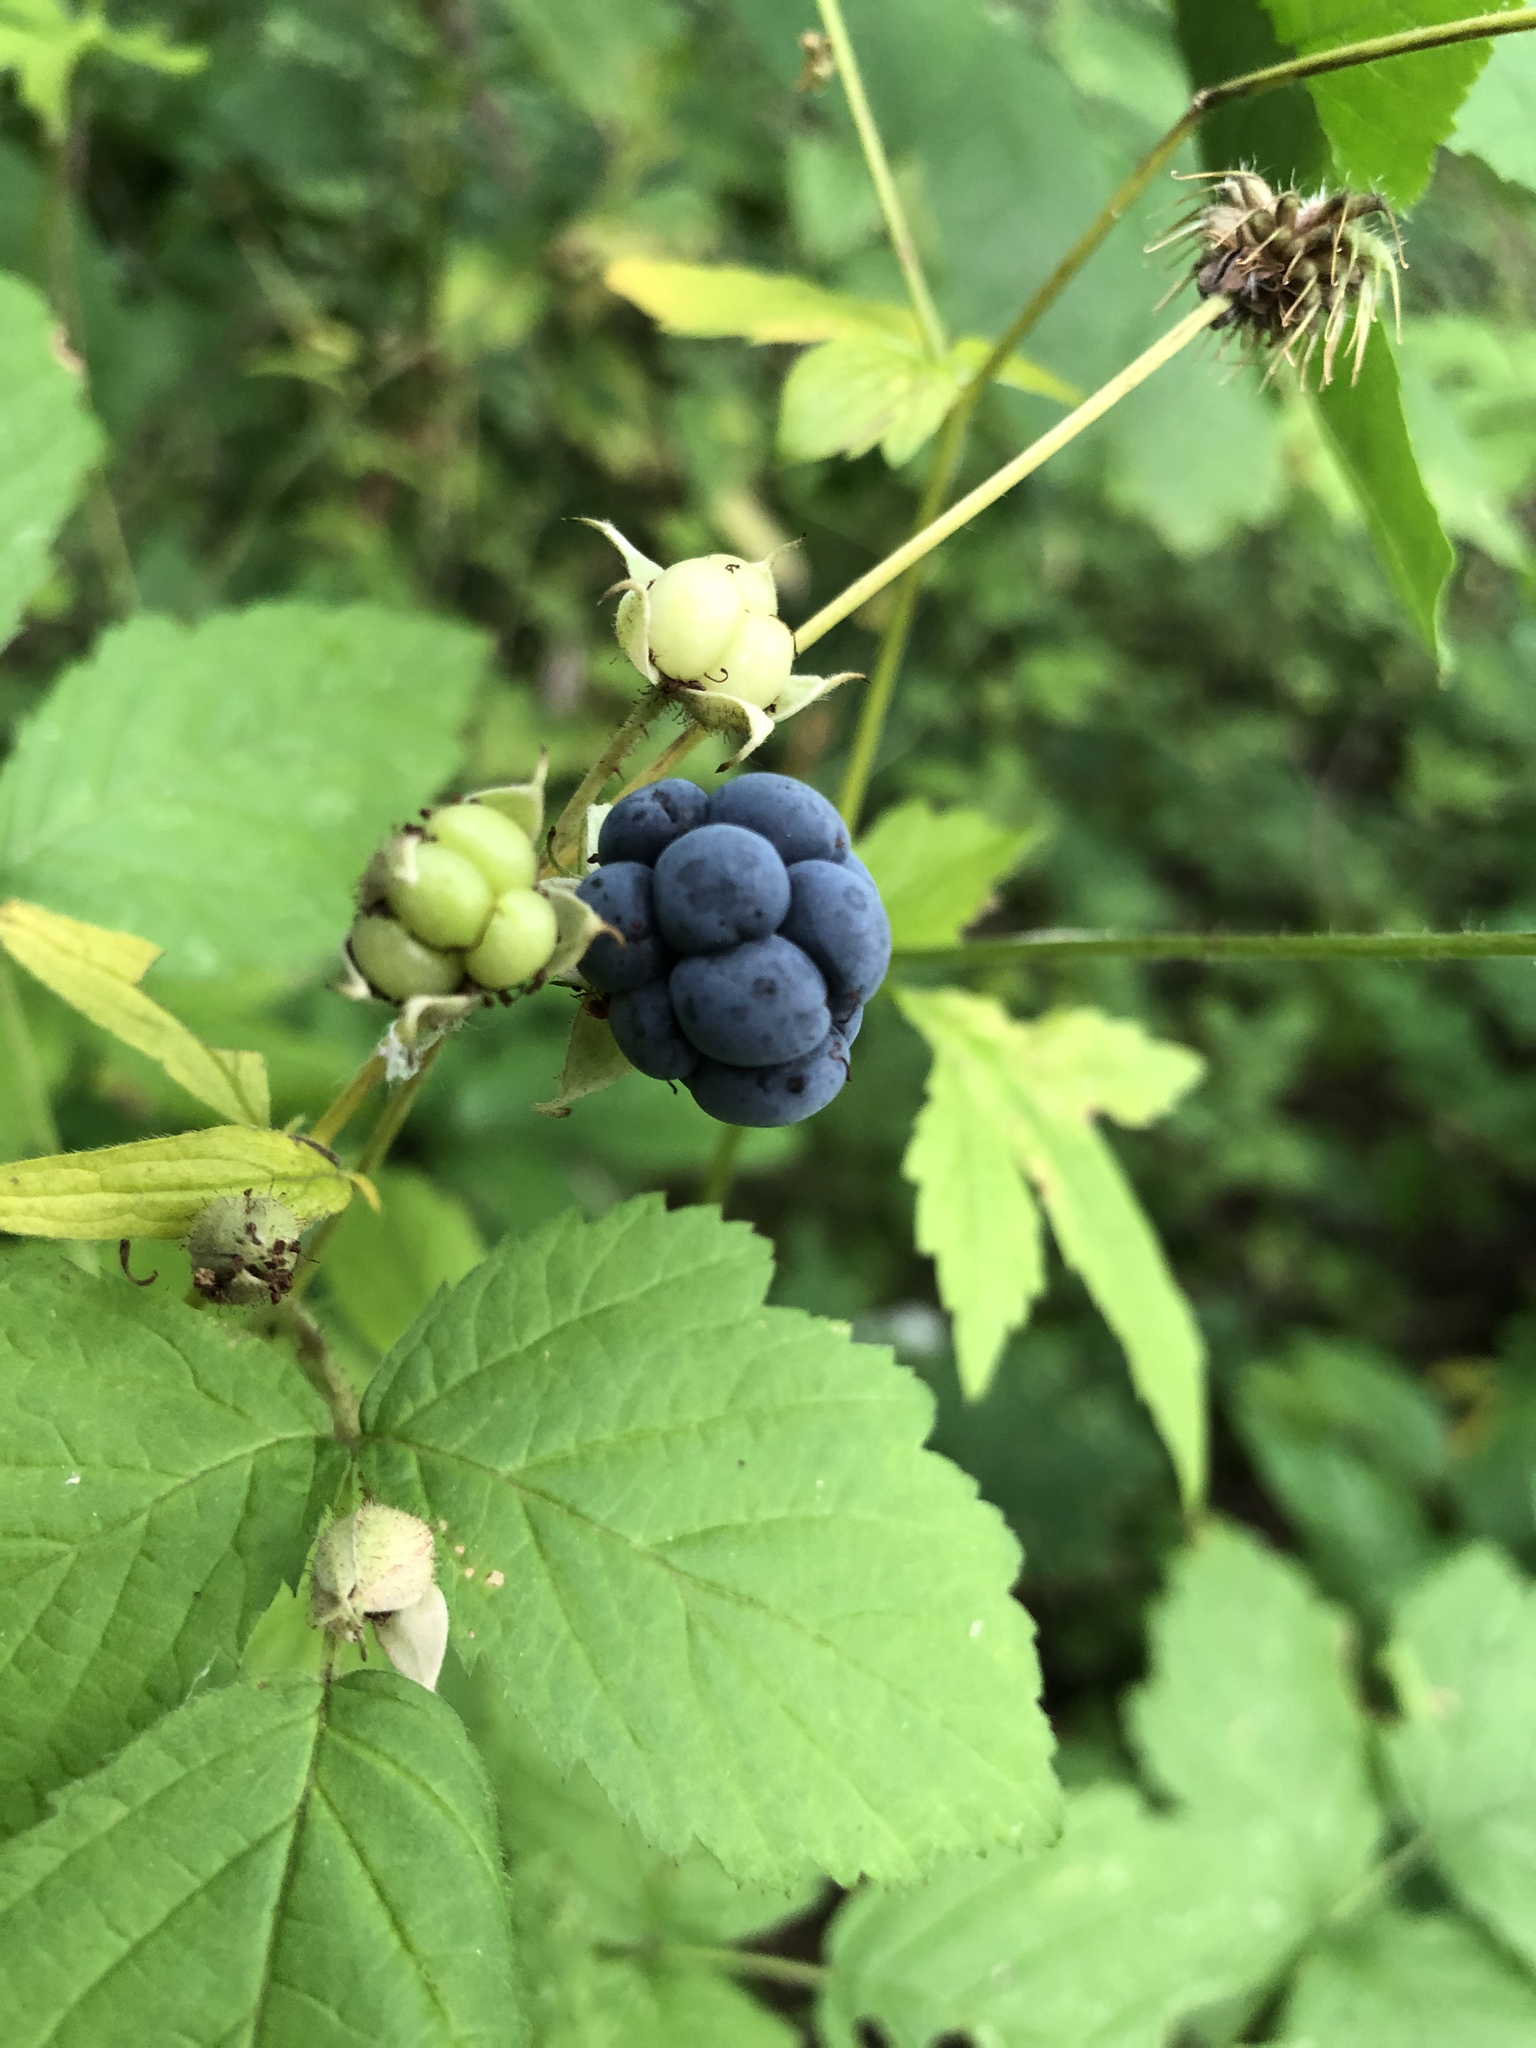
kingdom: Plantae
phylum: Tracheophyta
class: Magnoliopsida
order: Rosales
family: Rosaceae
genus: Rubus
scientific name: Rubus caesius
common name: Dewberry
